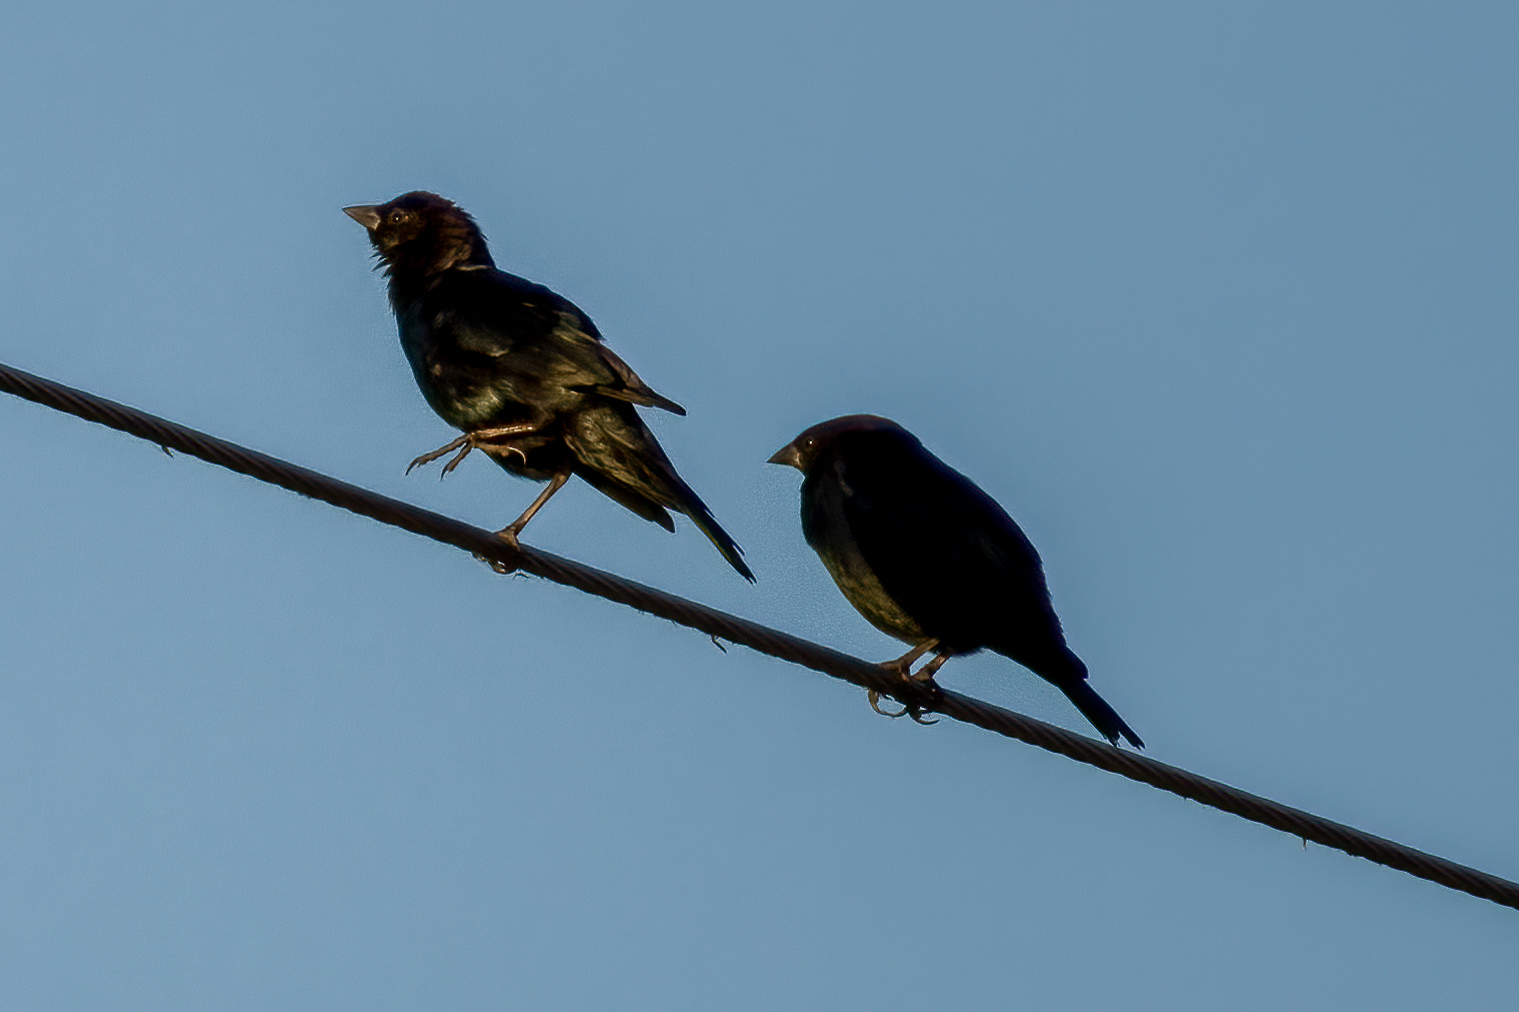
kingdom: Animalia
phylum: Chordata
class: Aves
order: Passeriformes
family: Icteridae
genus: Molothrus
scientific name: Molothrus ater
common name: Brown-headed cowbird
